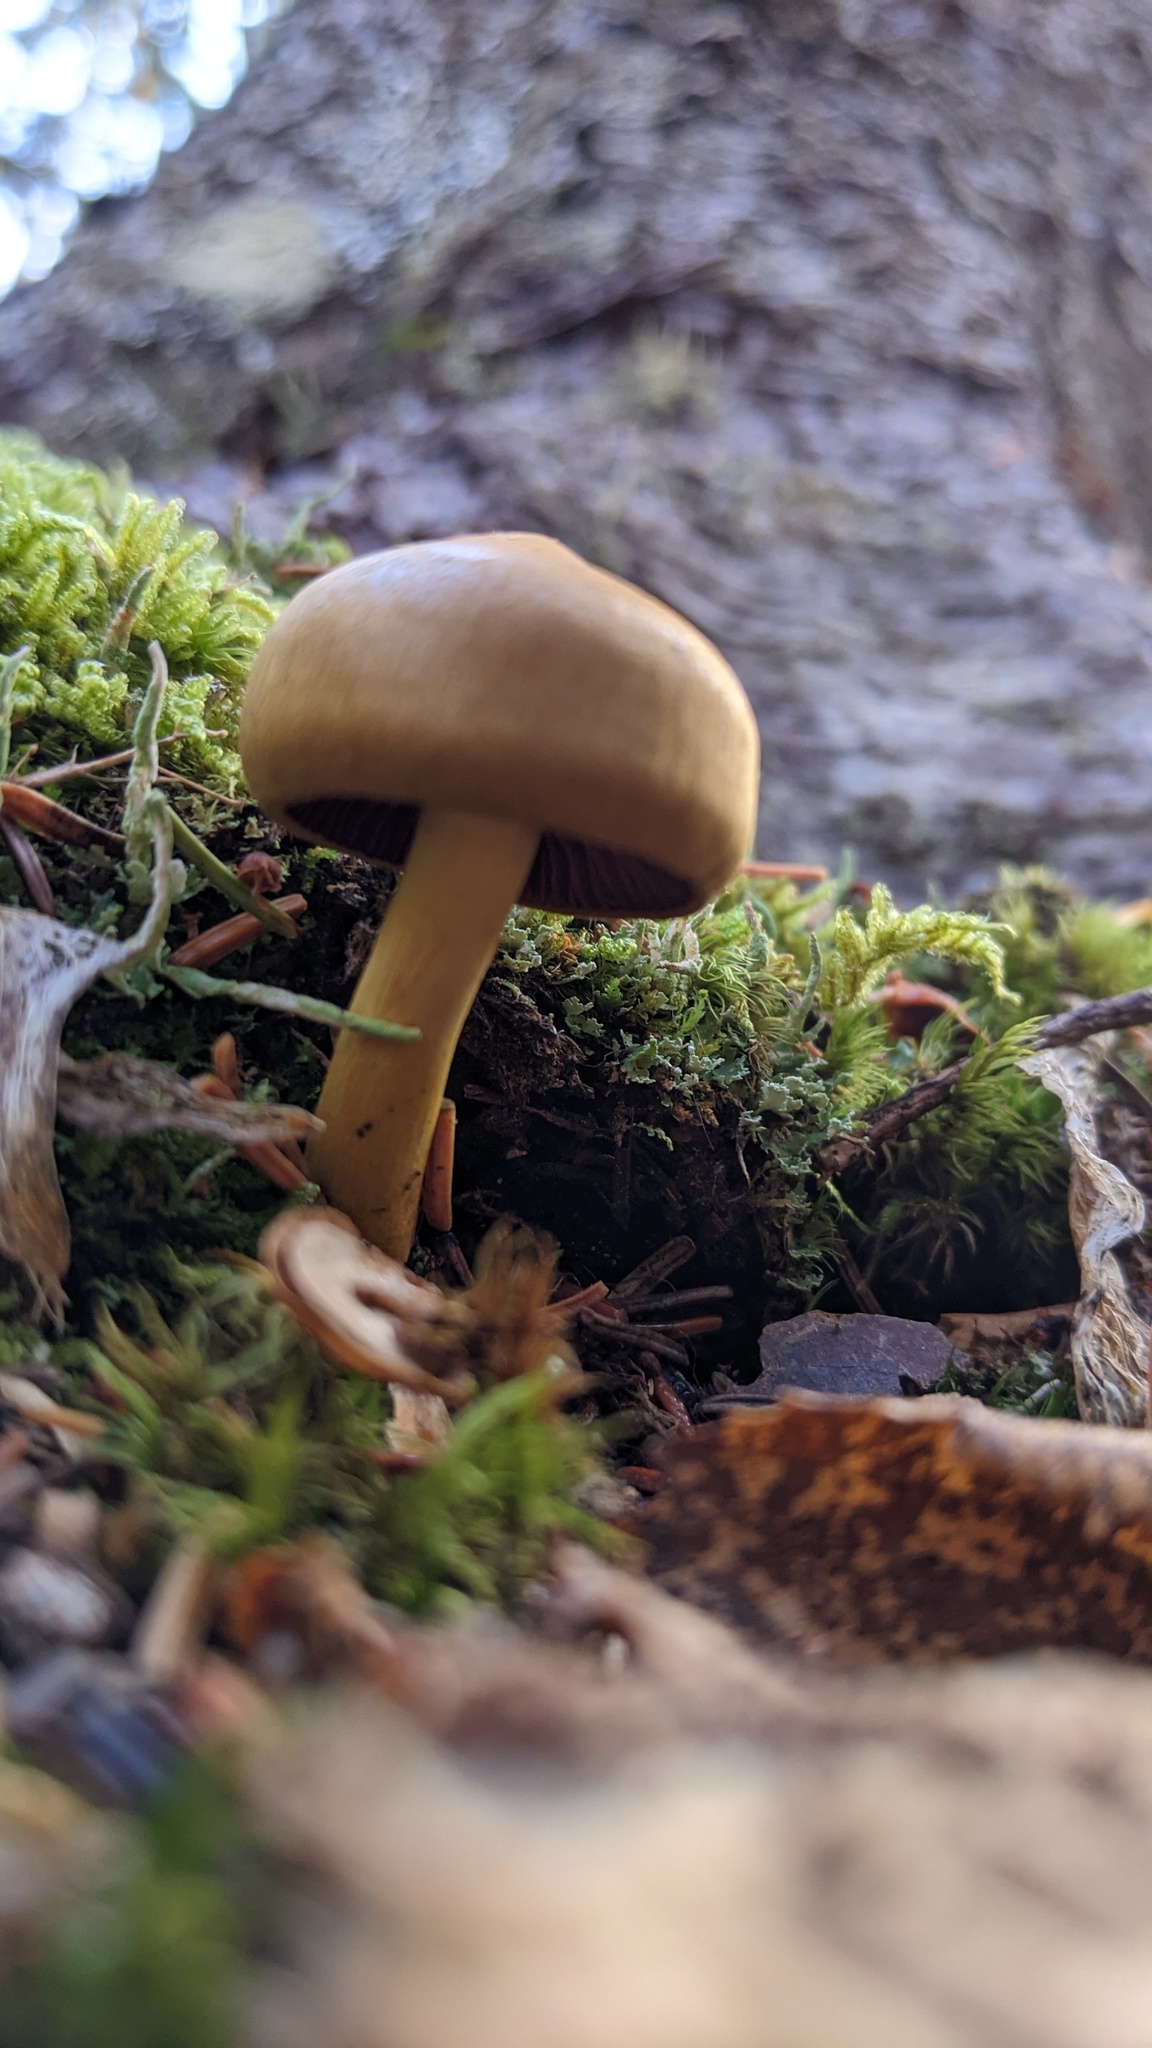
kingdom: Fungi
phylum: Basidiomycota
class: Agaricomycetes
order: Agaricales
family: Cortinariaceae
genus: Cortinarius
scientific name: Cortinarius semisanguineus
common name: Surprise webcap
